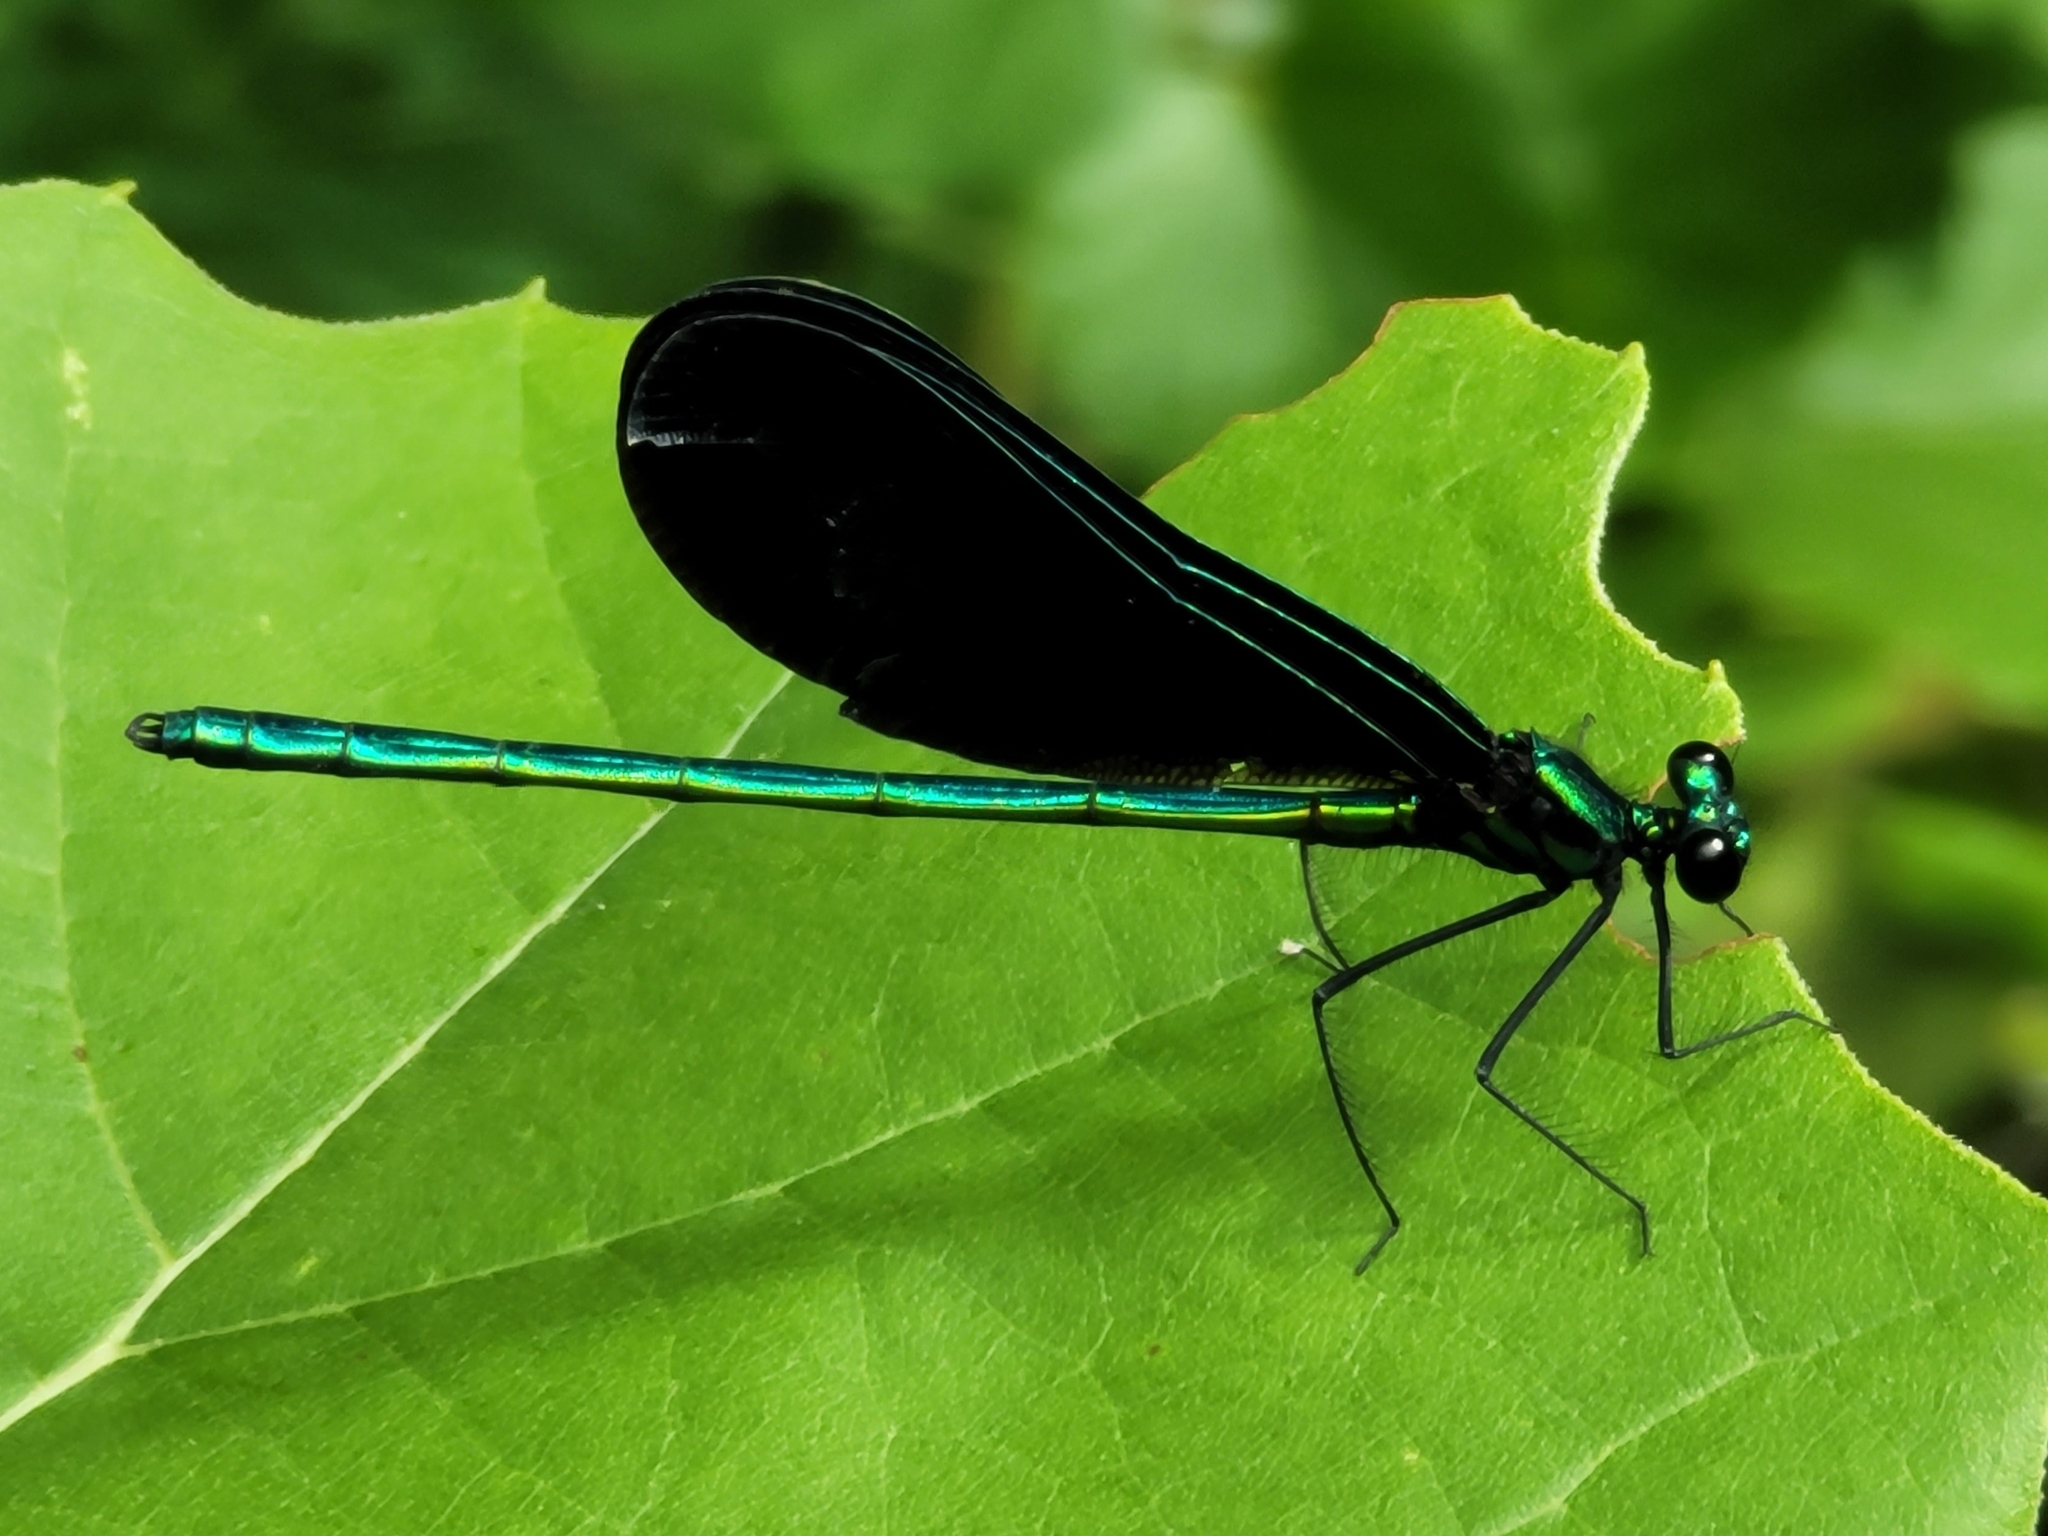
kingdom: Animalia
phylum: Arthropoda
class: Insecta
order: Odonata
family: Calopterygidae
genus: Calopteryx
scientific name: Calopteryx maculata
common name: Ebony jewelwing
